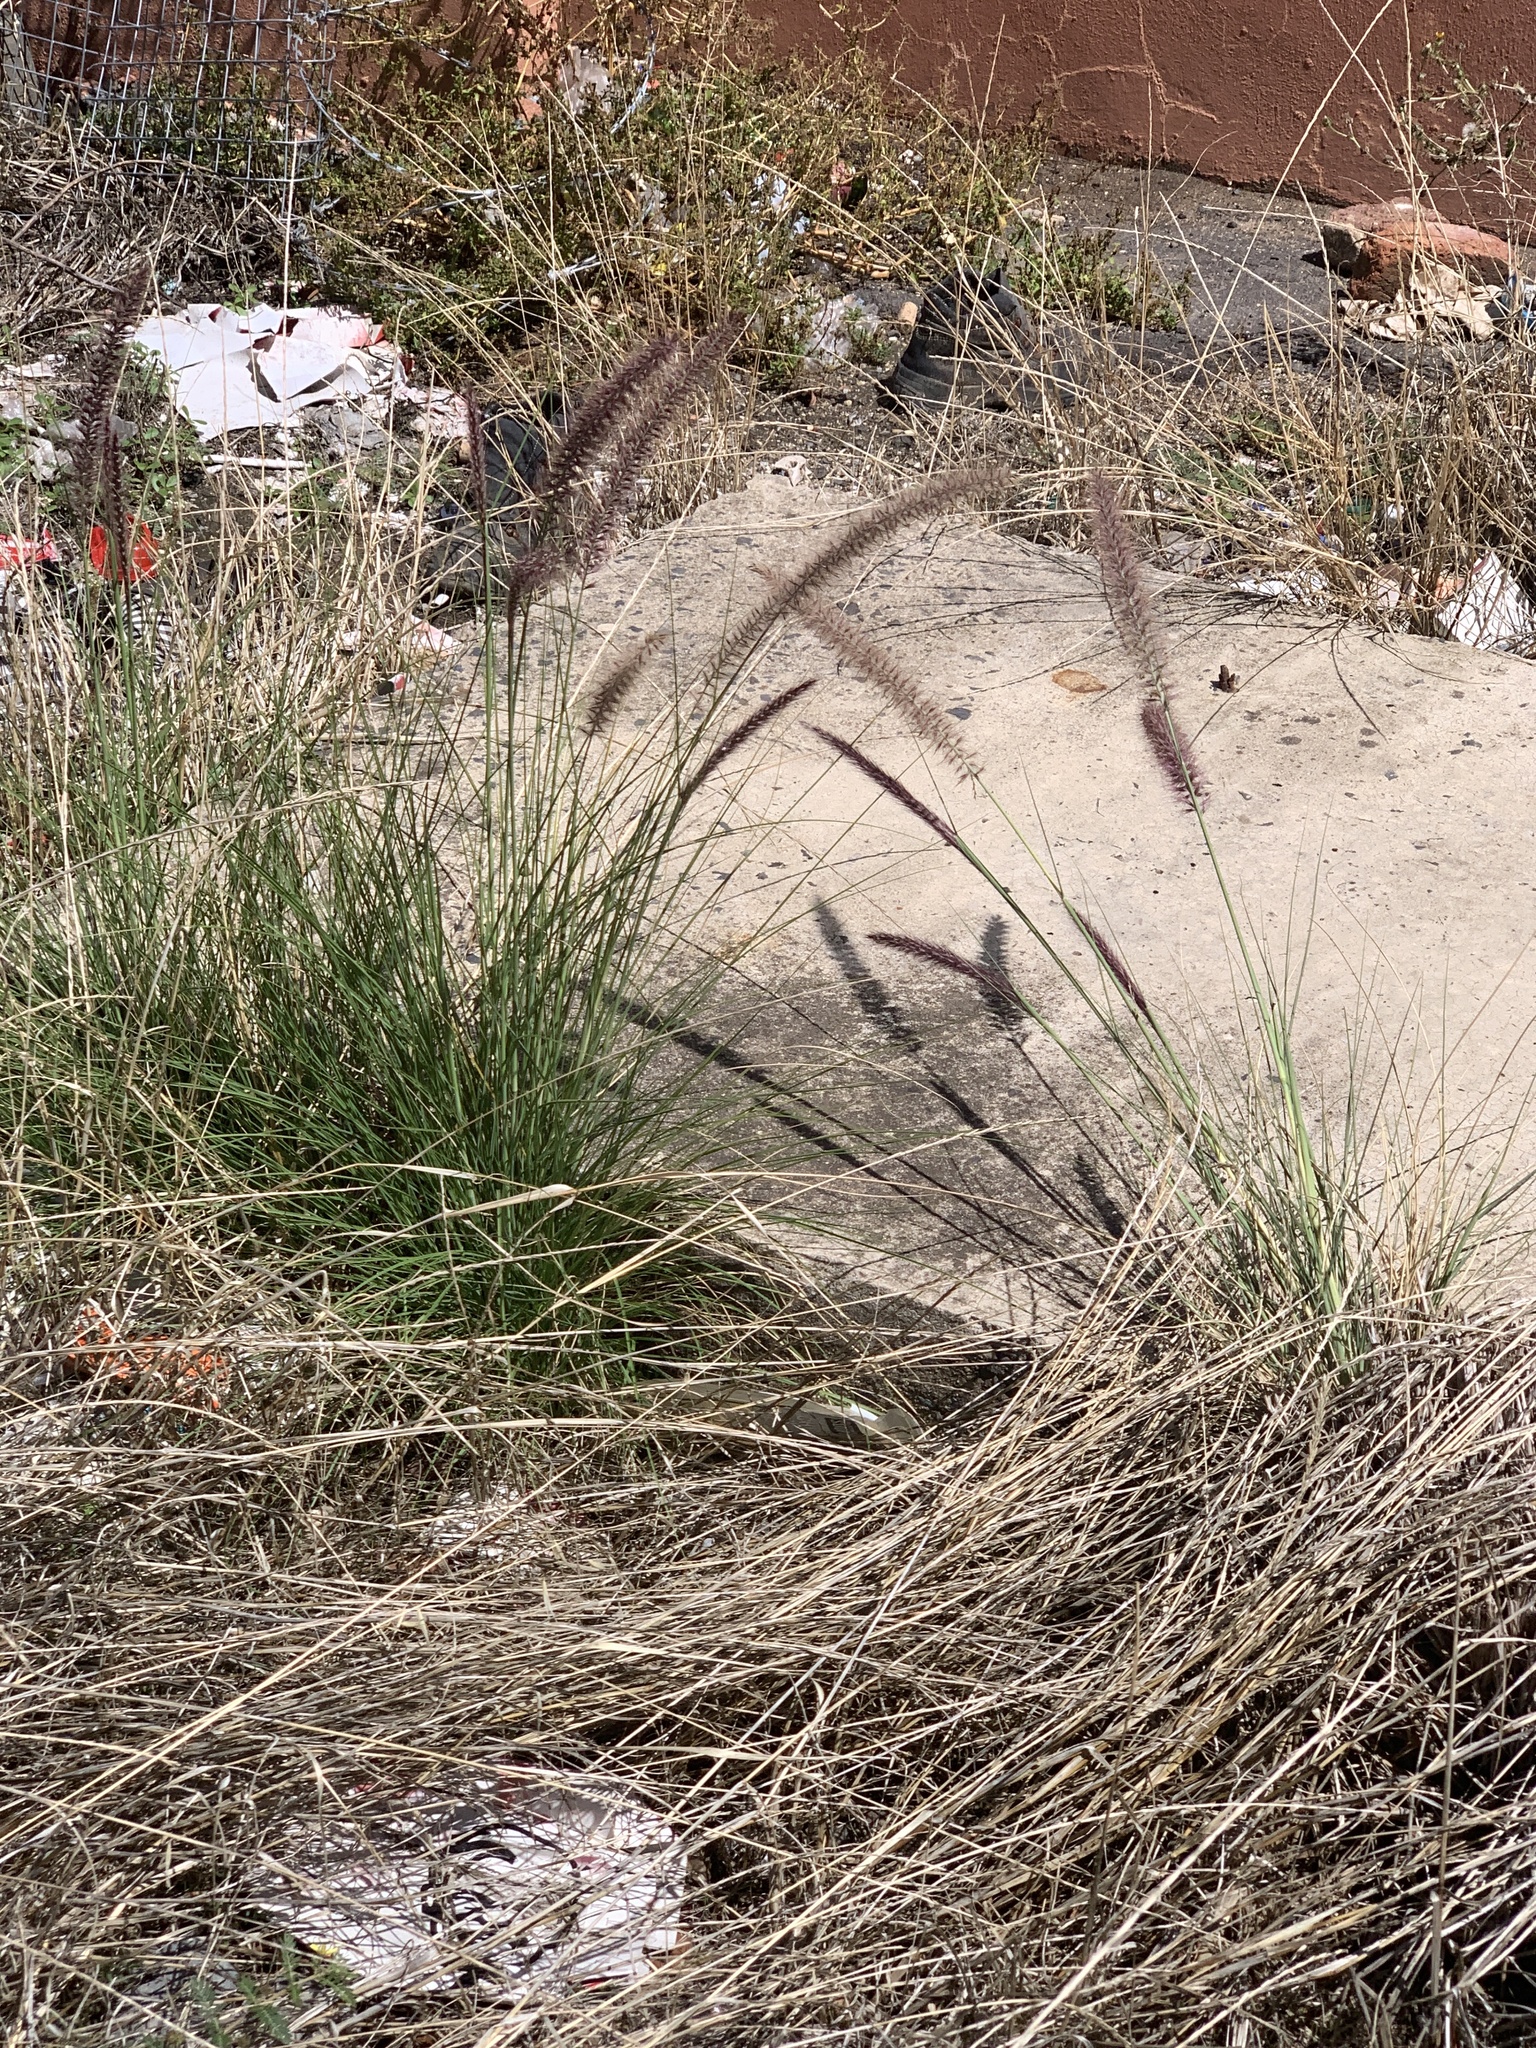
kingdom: Plantae
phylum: Tracheophyta
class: Liliopsida
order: Poales
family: Poaceae
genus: Cenchrus
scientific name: Cenchrus setaceus
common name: Crimson fountaingrass
